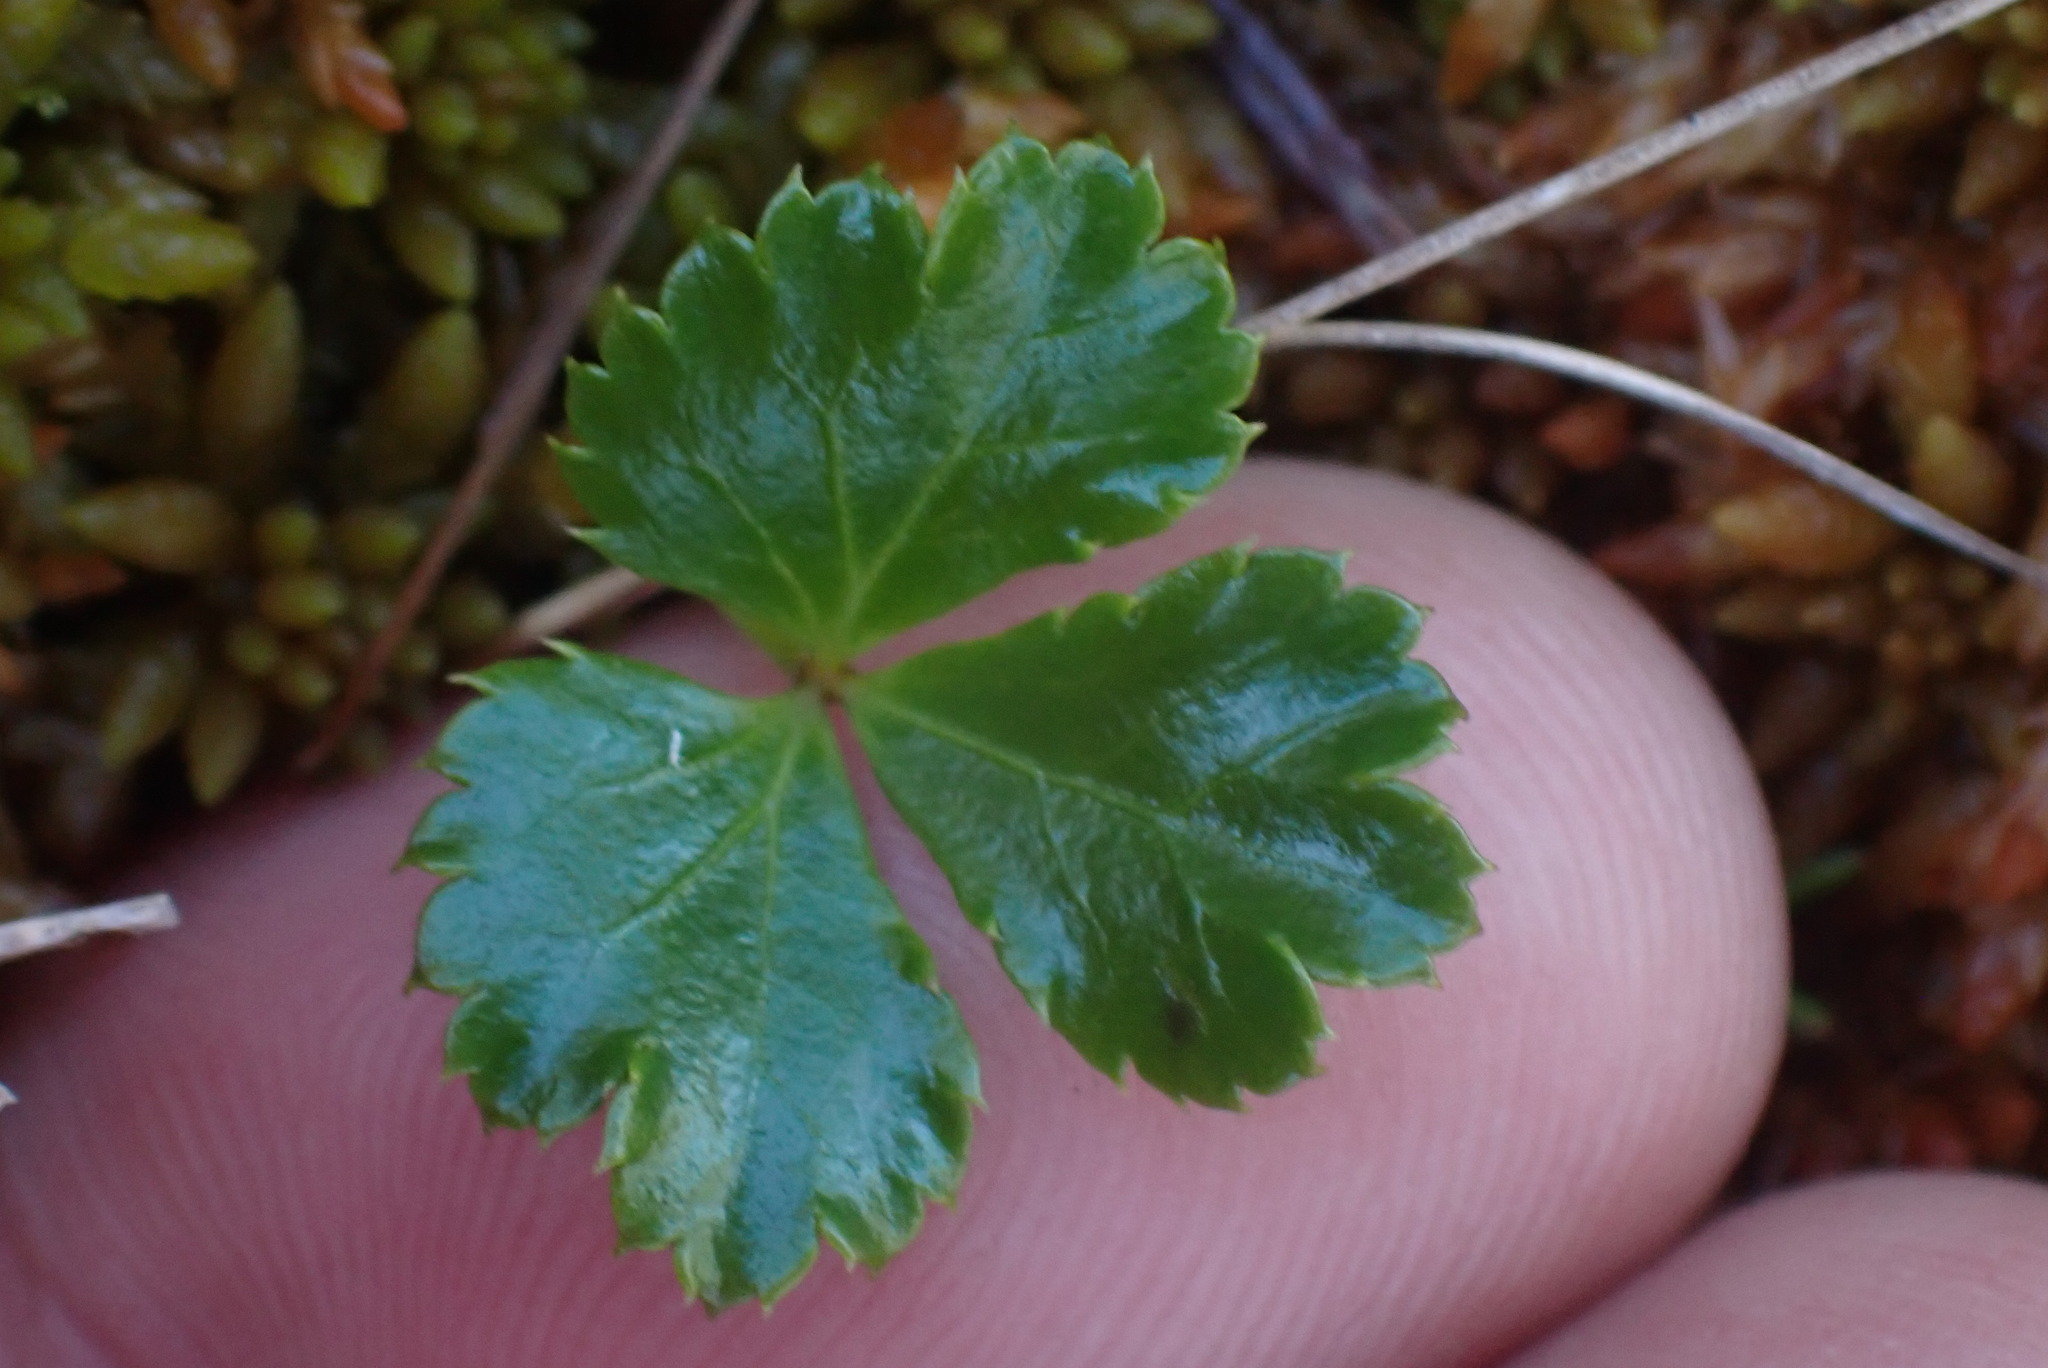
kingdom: Plantae
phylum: Tracheophyta
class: Magnoliopsida
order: Ranunculales
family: Ranunculaceae
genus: Coptis
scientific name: Coptis trifolia
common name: Canker-root
